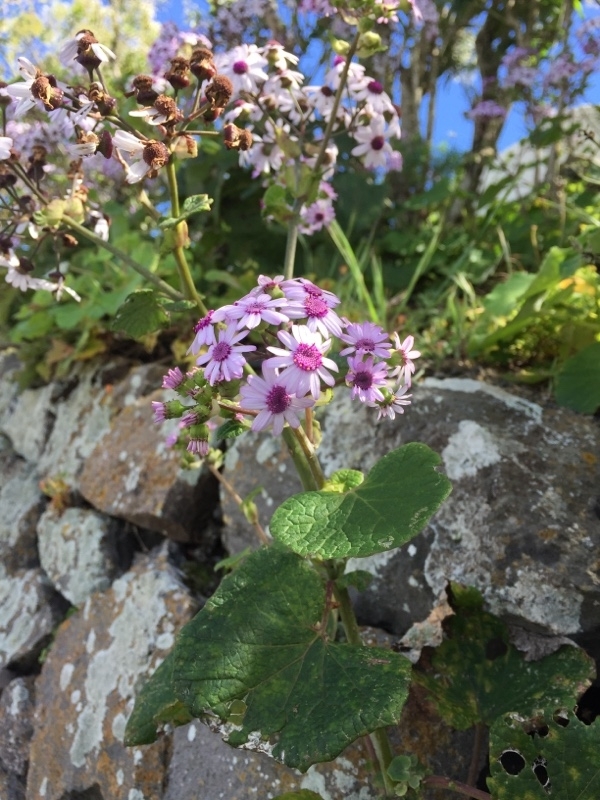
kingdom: Plantae
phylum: Tracheophyta
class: Magnoliopsida
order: Asterales
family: Asteraceae
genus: Pericallis
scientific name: Pericallis webbii
